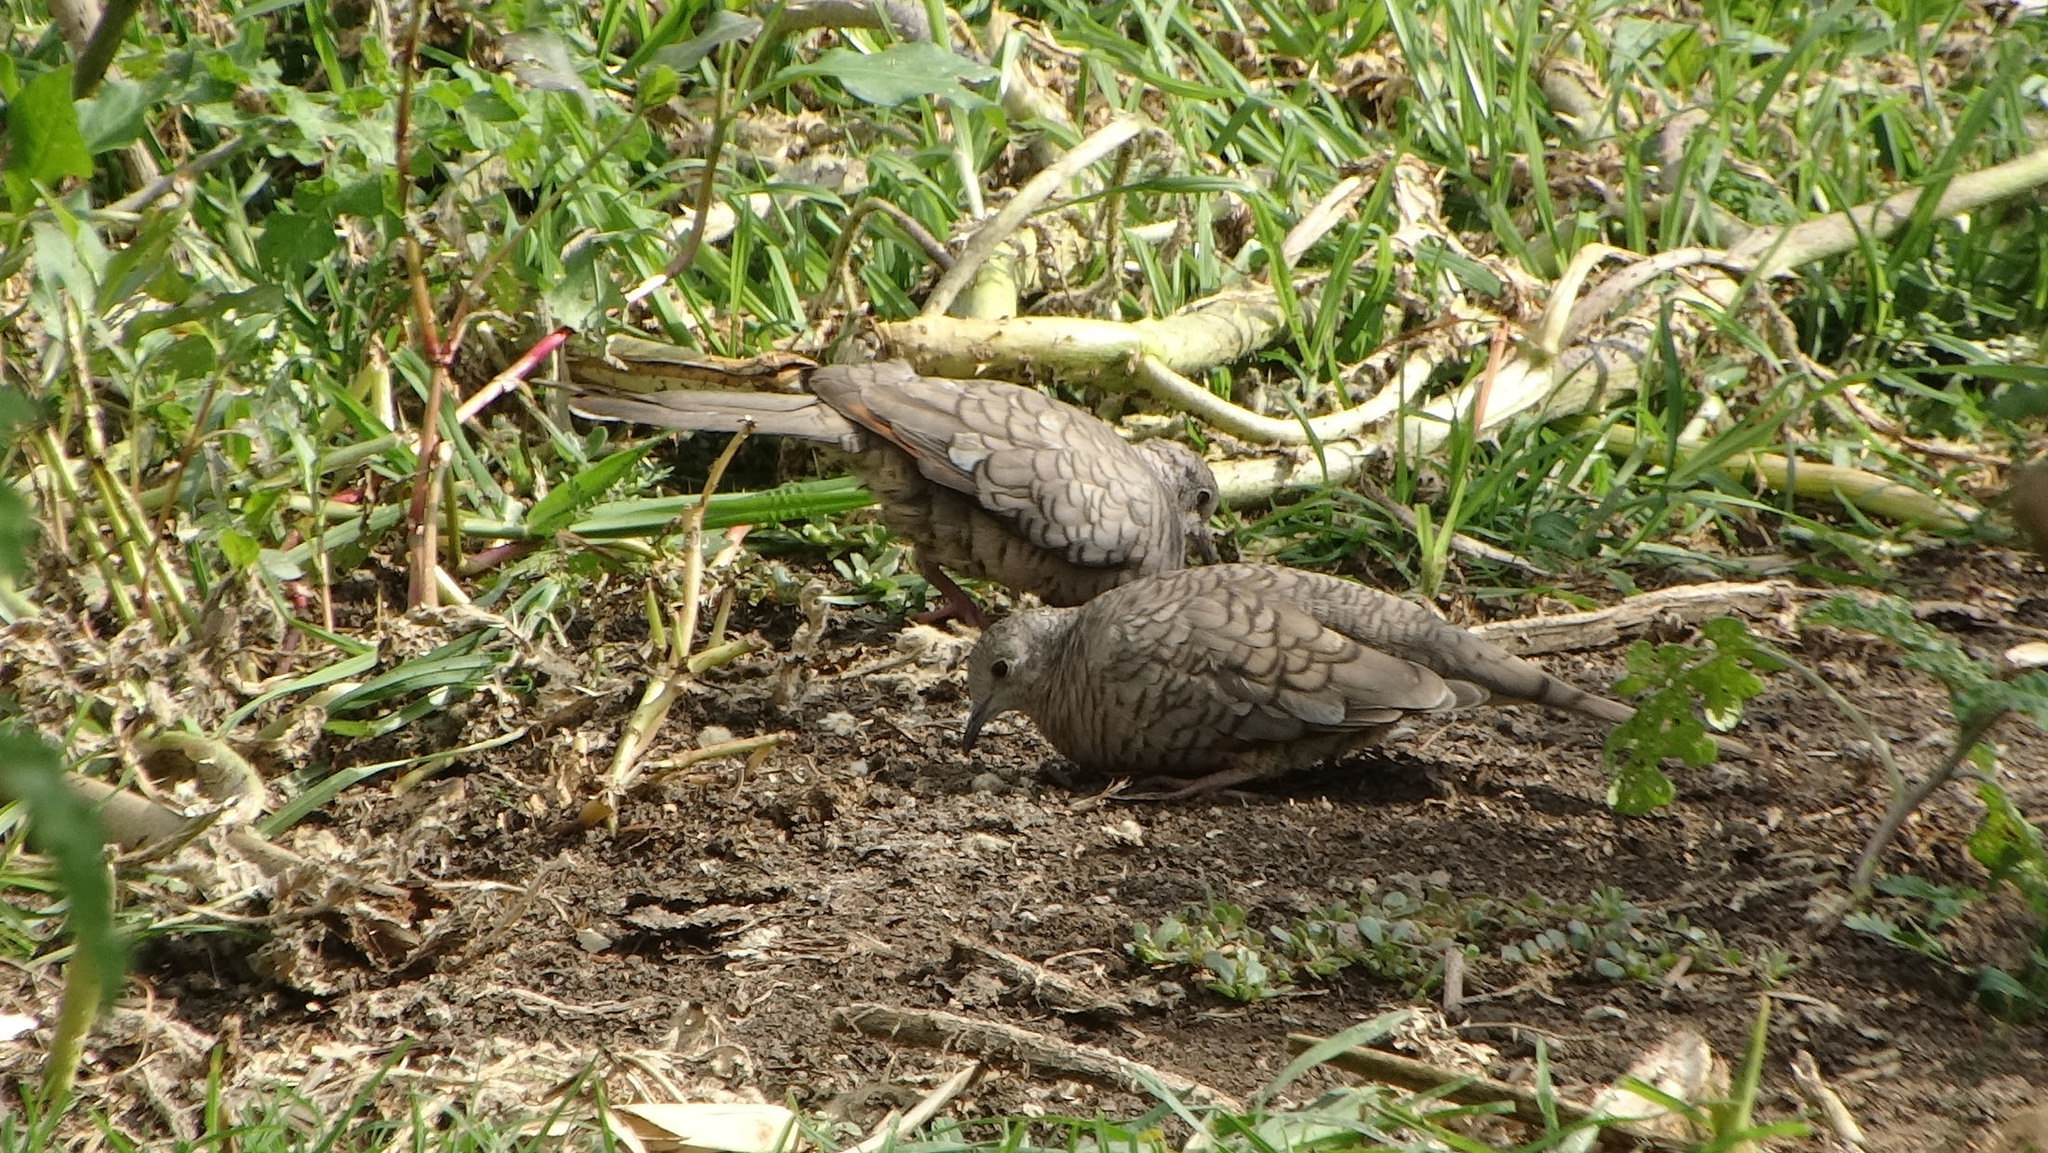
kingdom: Animalia
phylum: Chordata
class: Aves
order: Columbiformes
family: Columbidae
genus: Columbina
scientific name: Columbina inca
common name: Inca dove
